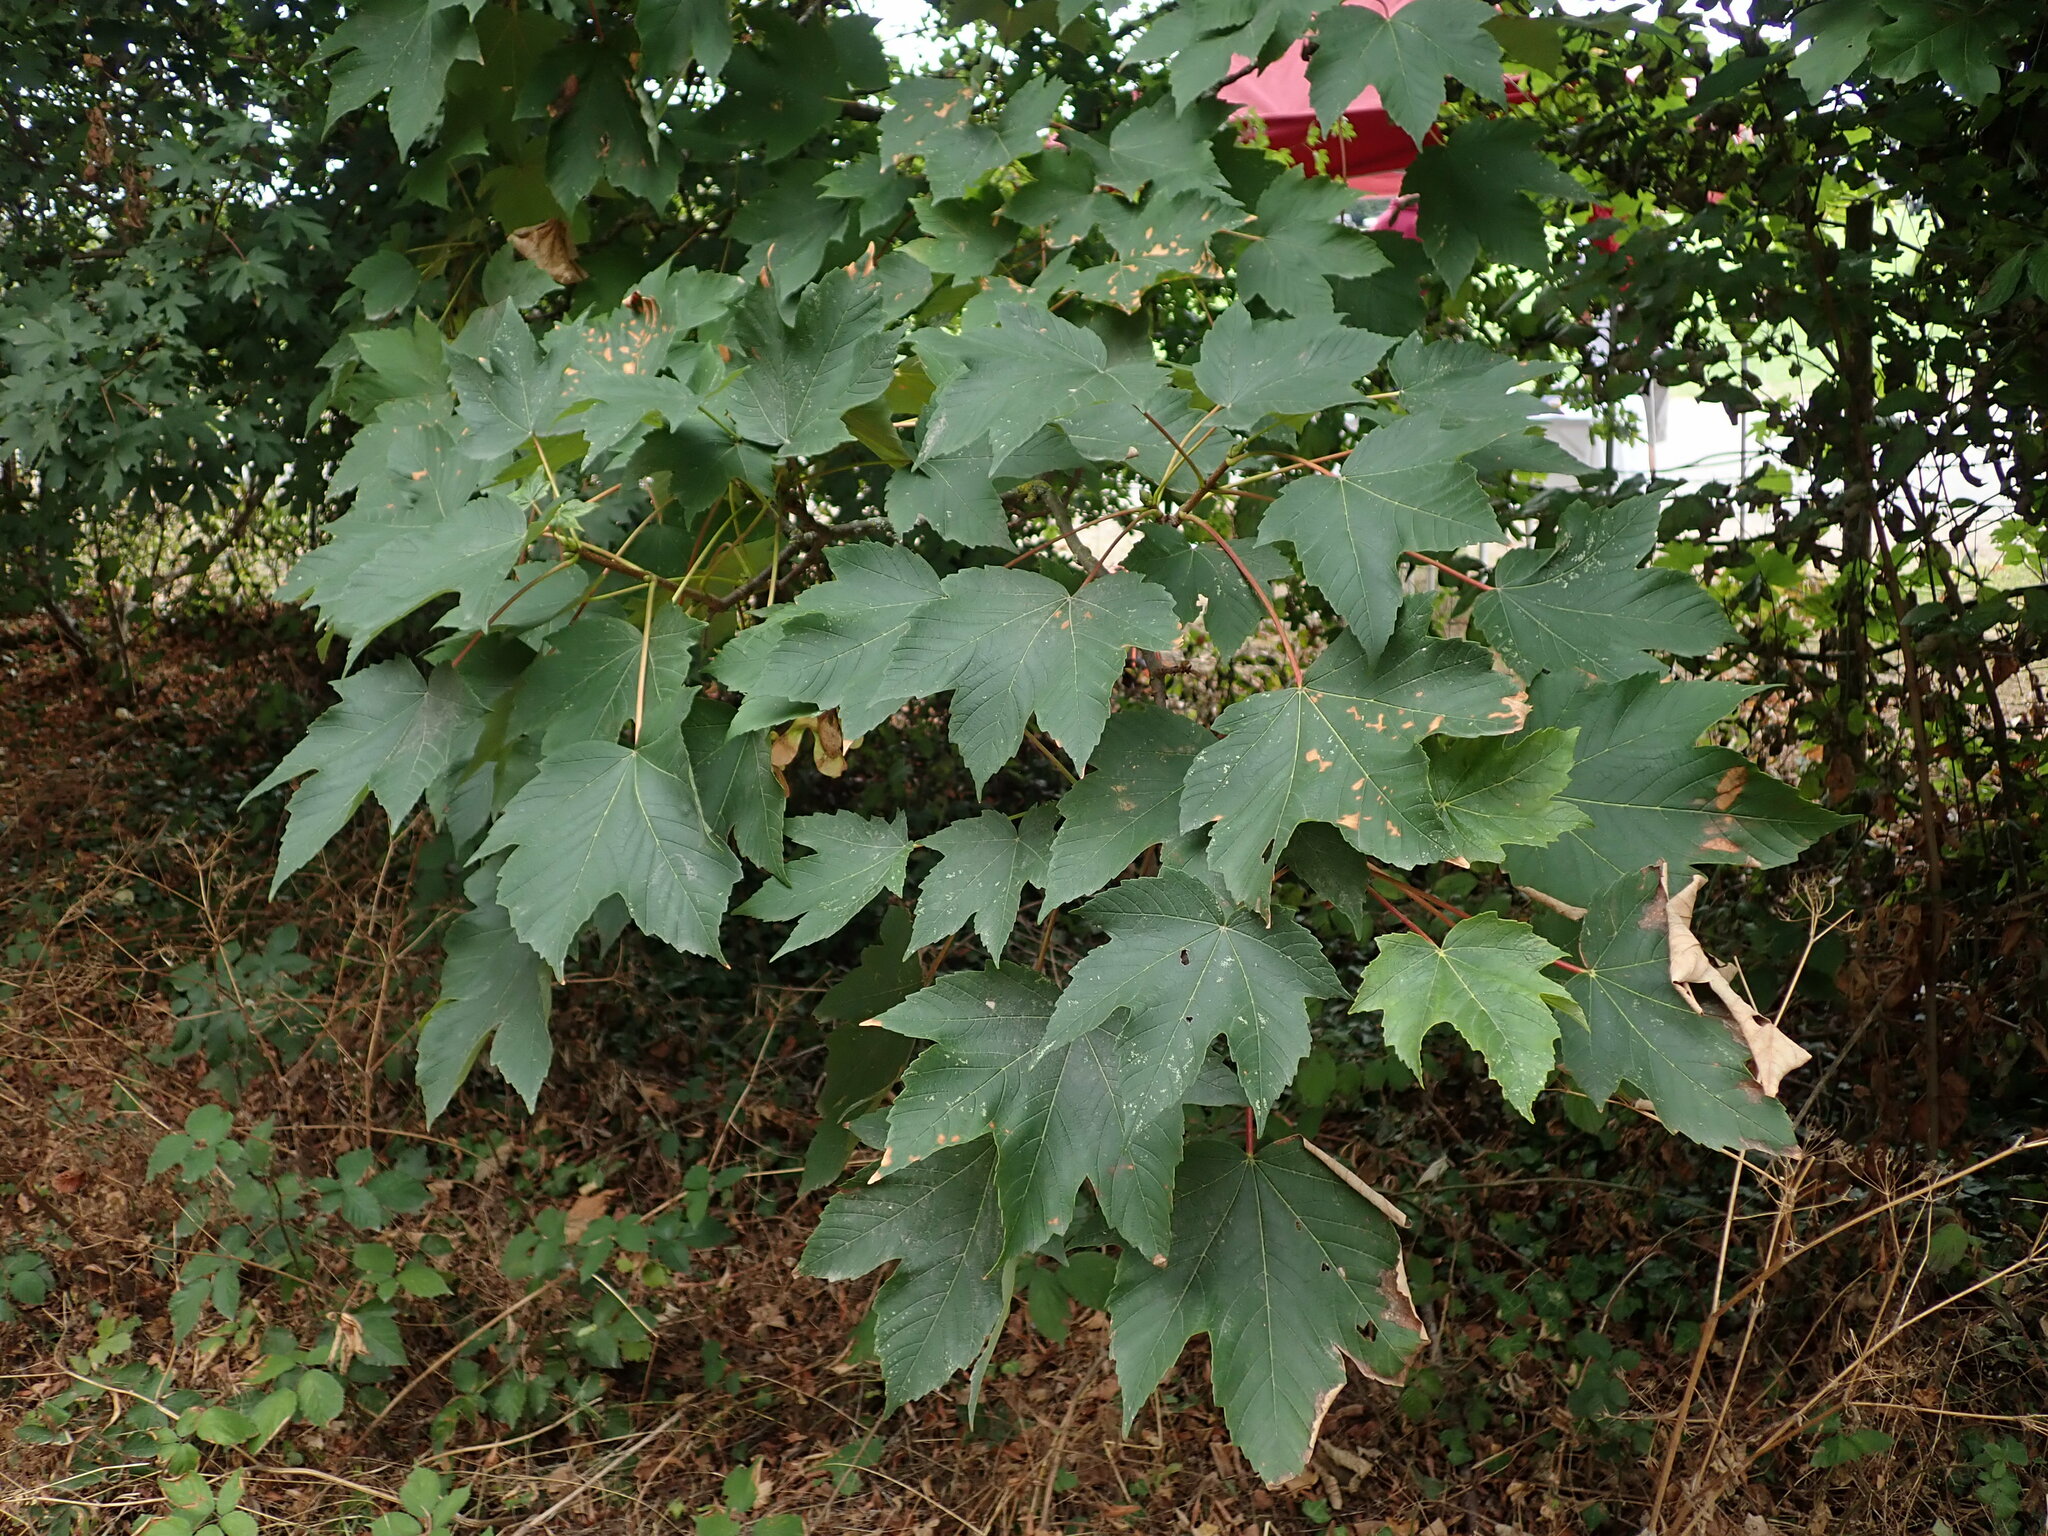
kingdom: Plantae
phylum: Tracheophyta
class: Magnoliopsida
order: Sapindales
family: Sapindaceae
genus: Acer
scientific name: Acer pseudoplatanus
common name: Sycamore
